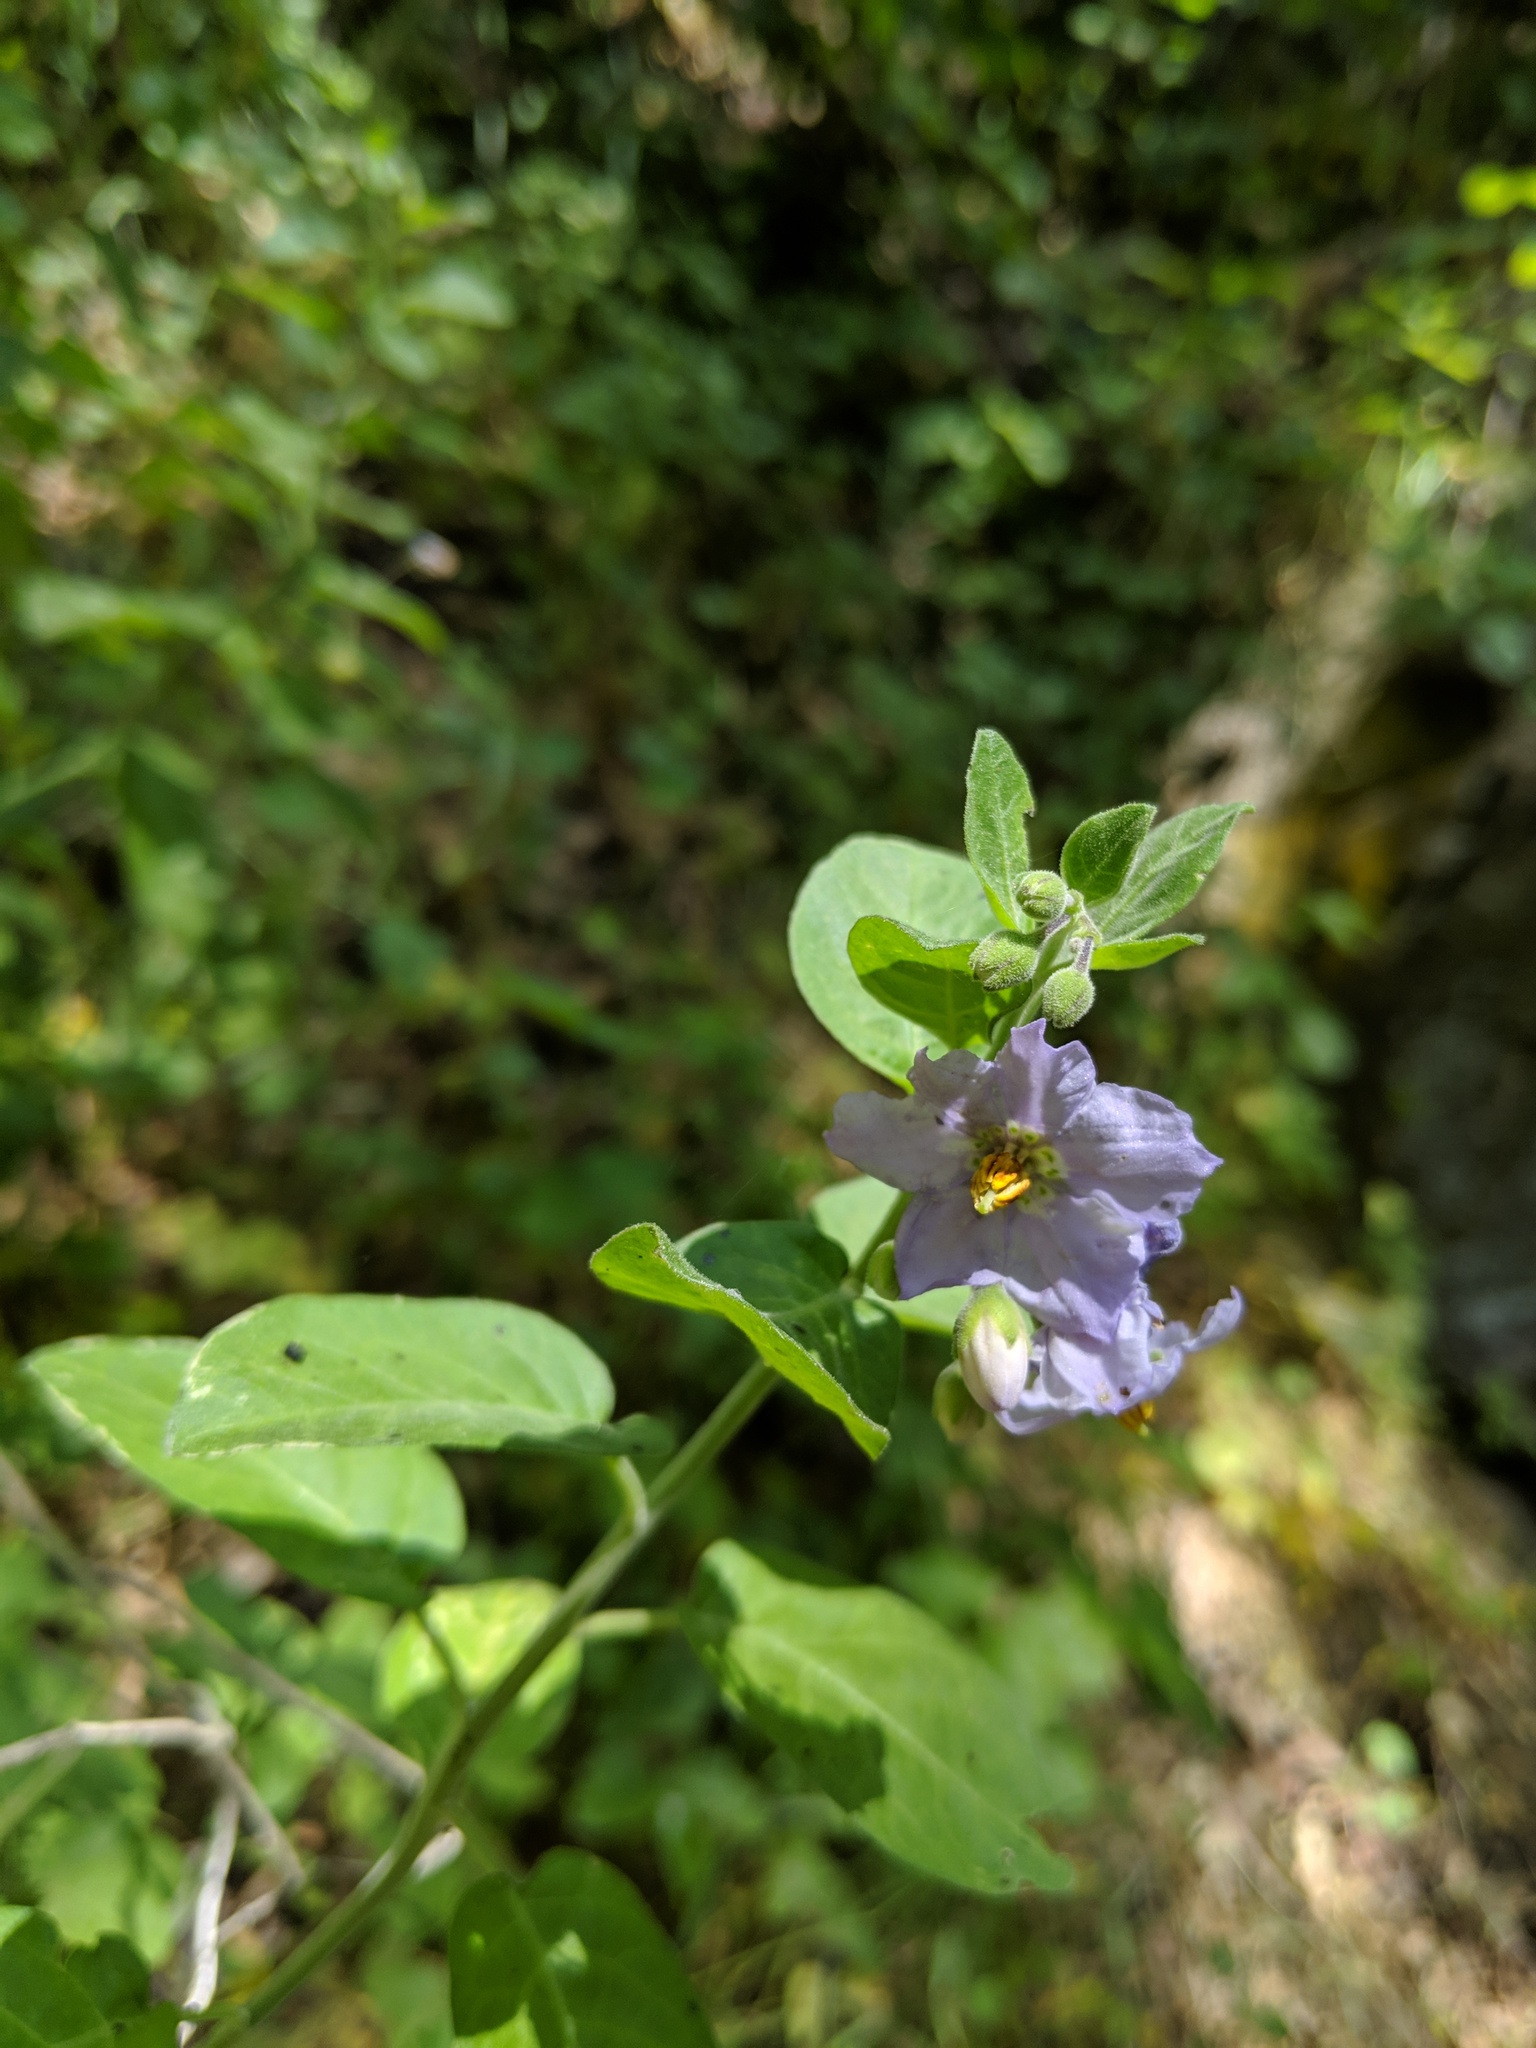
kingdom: Plantae
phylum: Tracheophyta
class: Magnoliopsida
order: Solanales
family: Solanaceae
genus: Solanum
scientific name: Solanum umbelliferum
